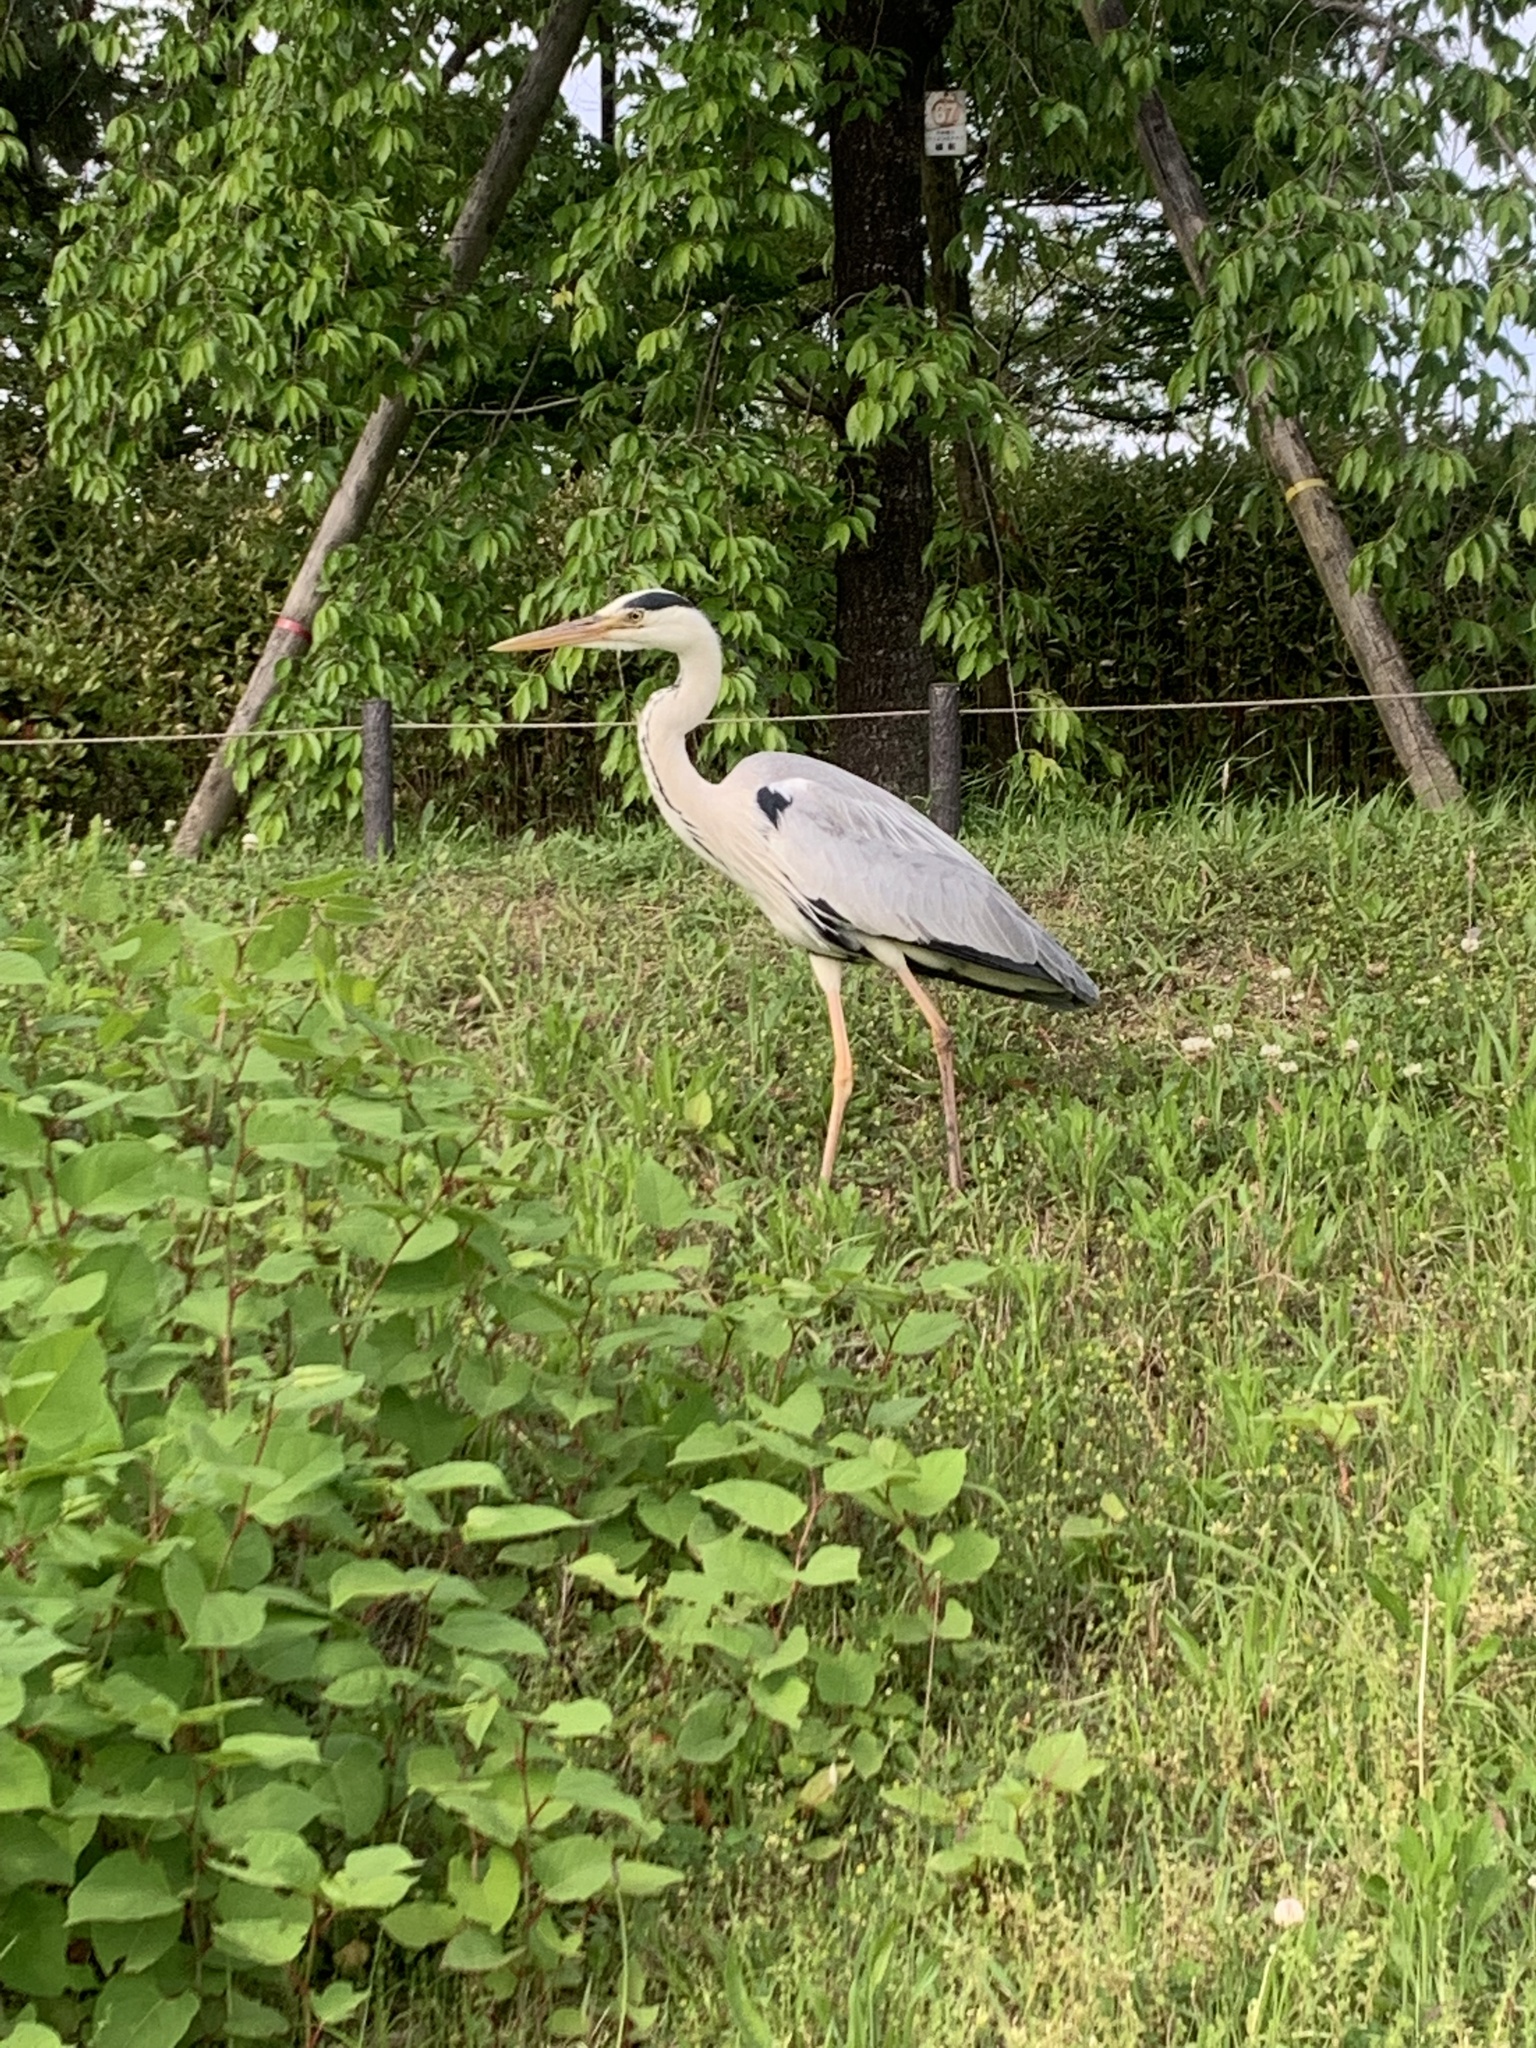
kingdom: Animalia
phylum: Chordata
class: Aves
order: Pelecaniformes
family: Ardeidae
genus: Ardea
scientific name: Ardea cinerea
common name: Grey heron
